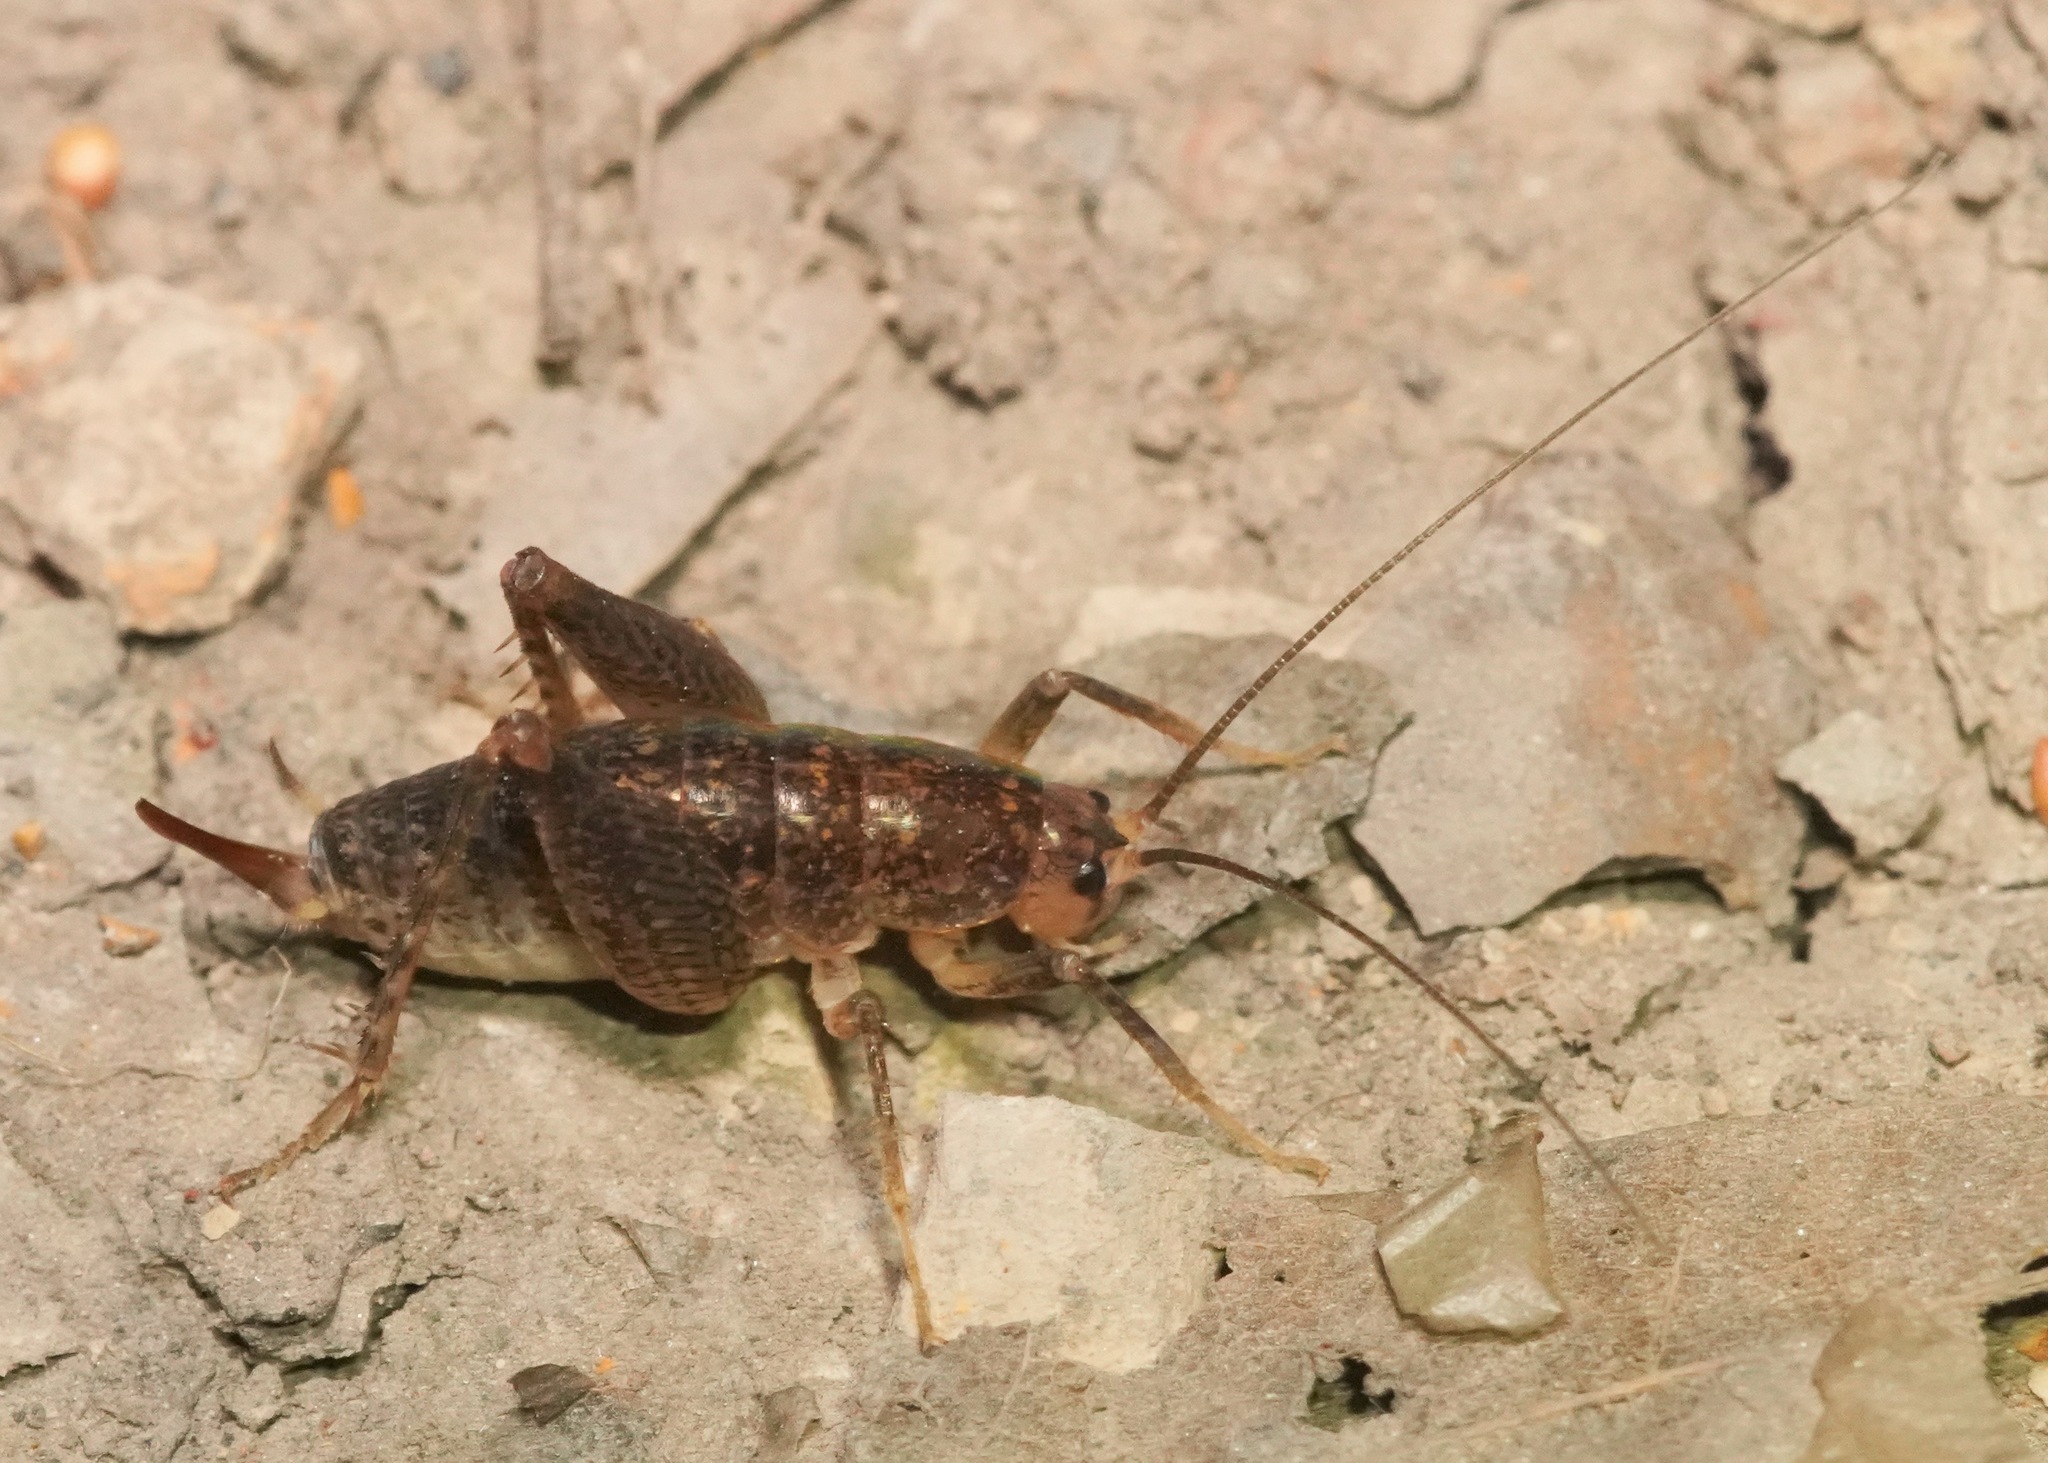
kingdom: Animalia
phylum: Arthropoda
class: Insecta
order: Orthoptera
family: Rhaphidophoridae
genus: Pristoceuthophilus
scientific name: Pristoceuthophilus
